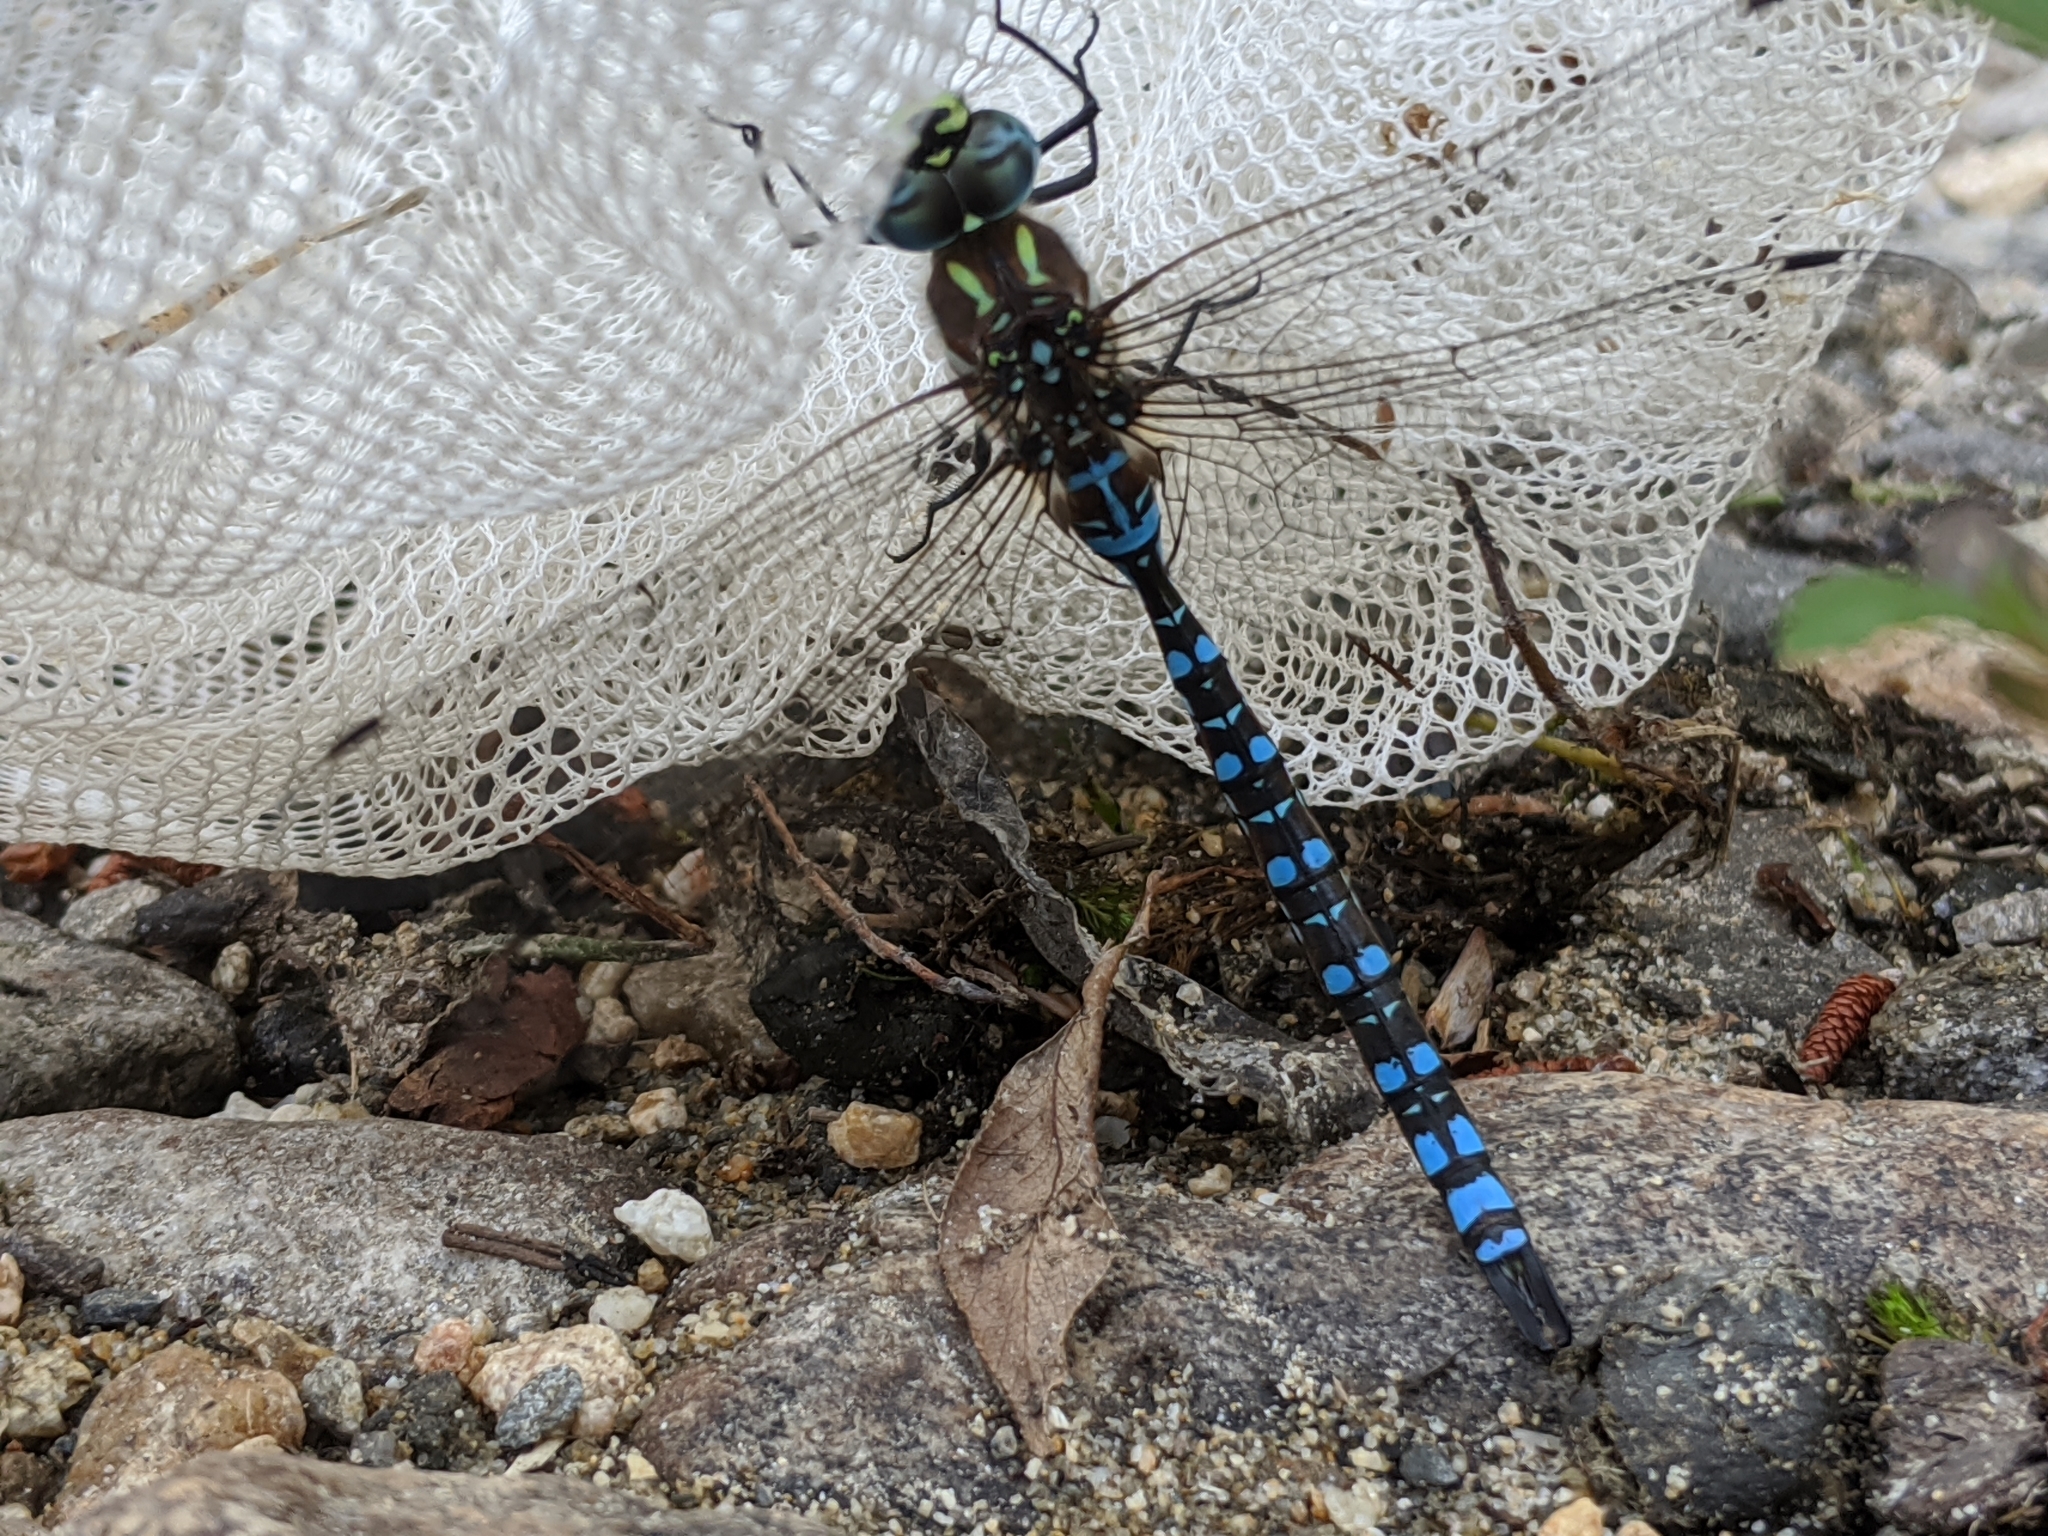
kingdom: Animalia
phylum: Arthropoda
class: Insecta
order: Odonata
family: Aeshnidae
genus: Aeshna
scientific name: Aeshna palmata
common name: Paddle-tailed darner
